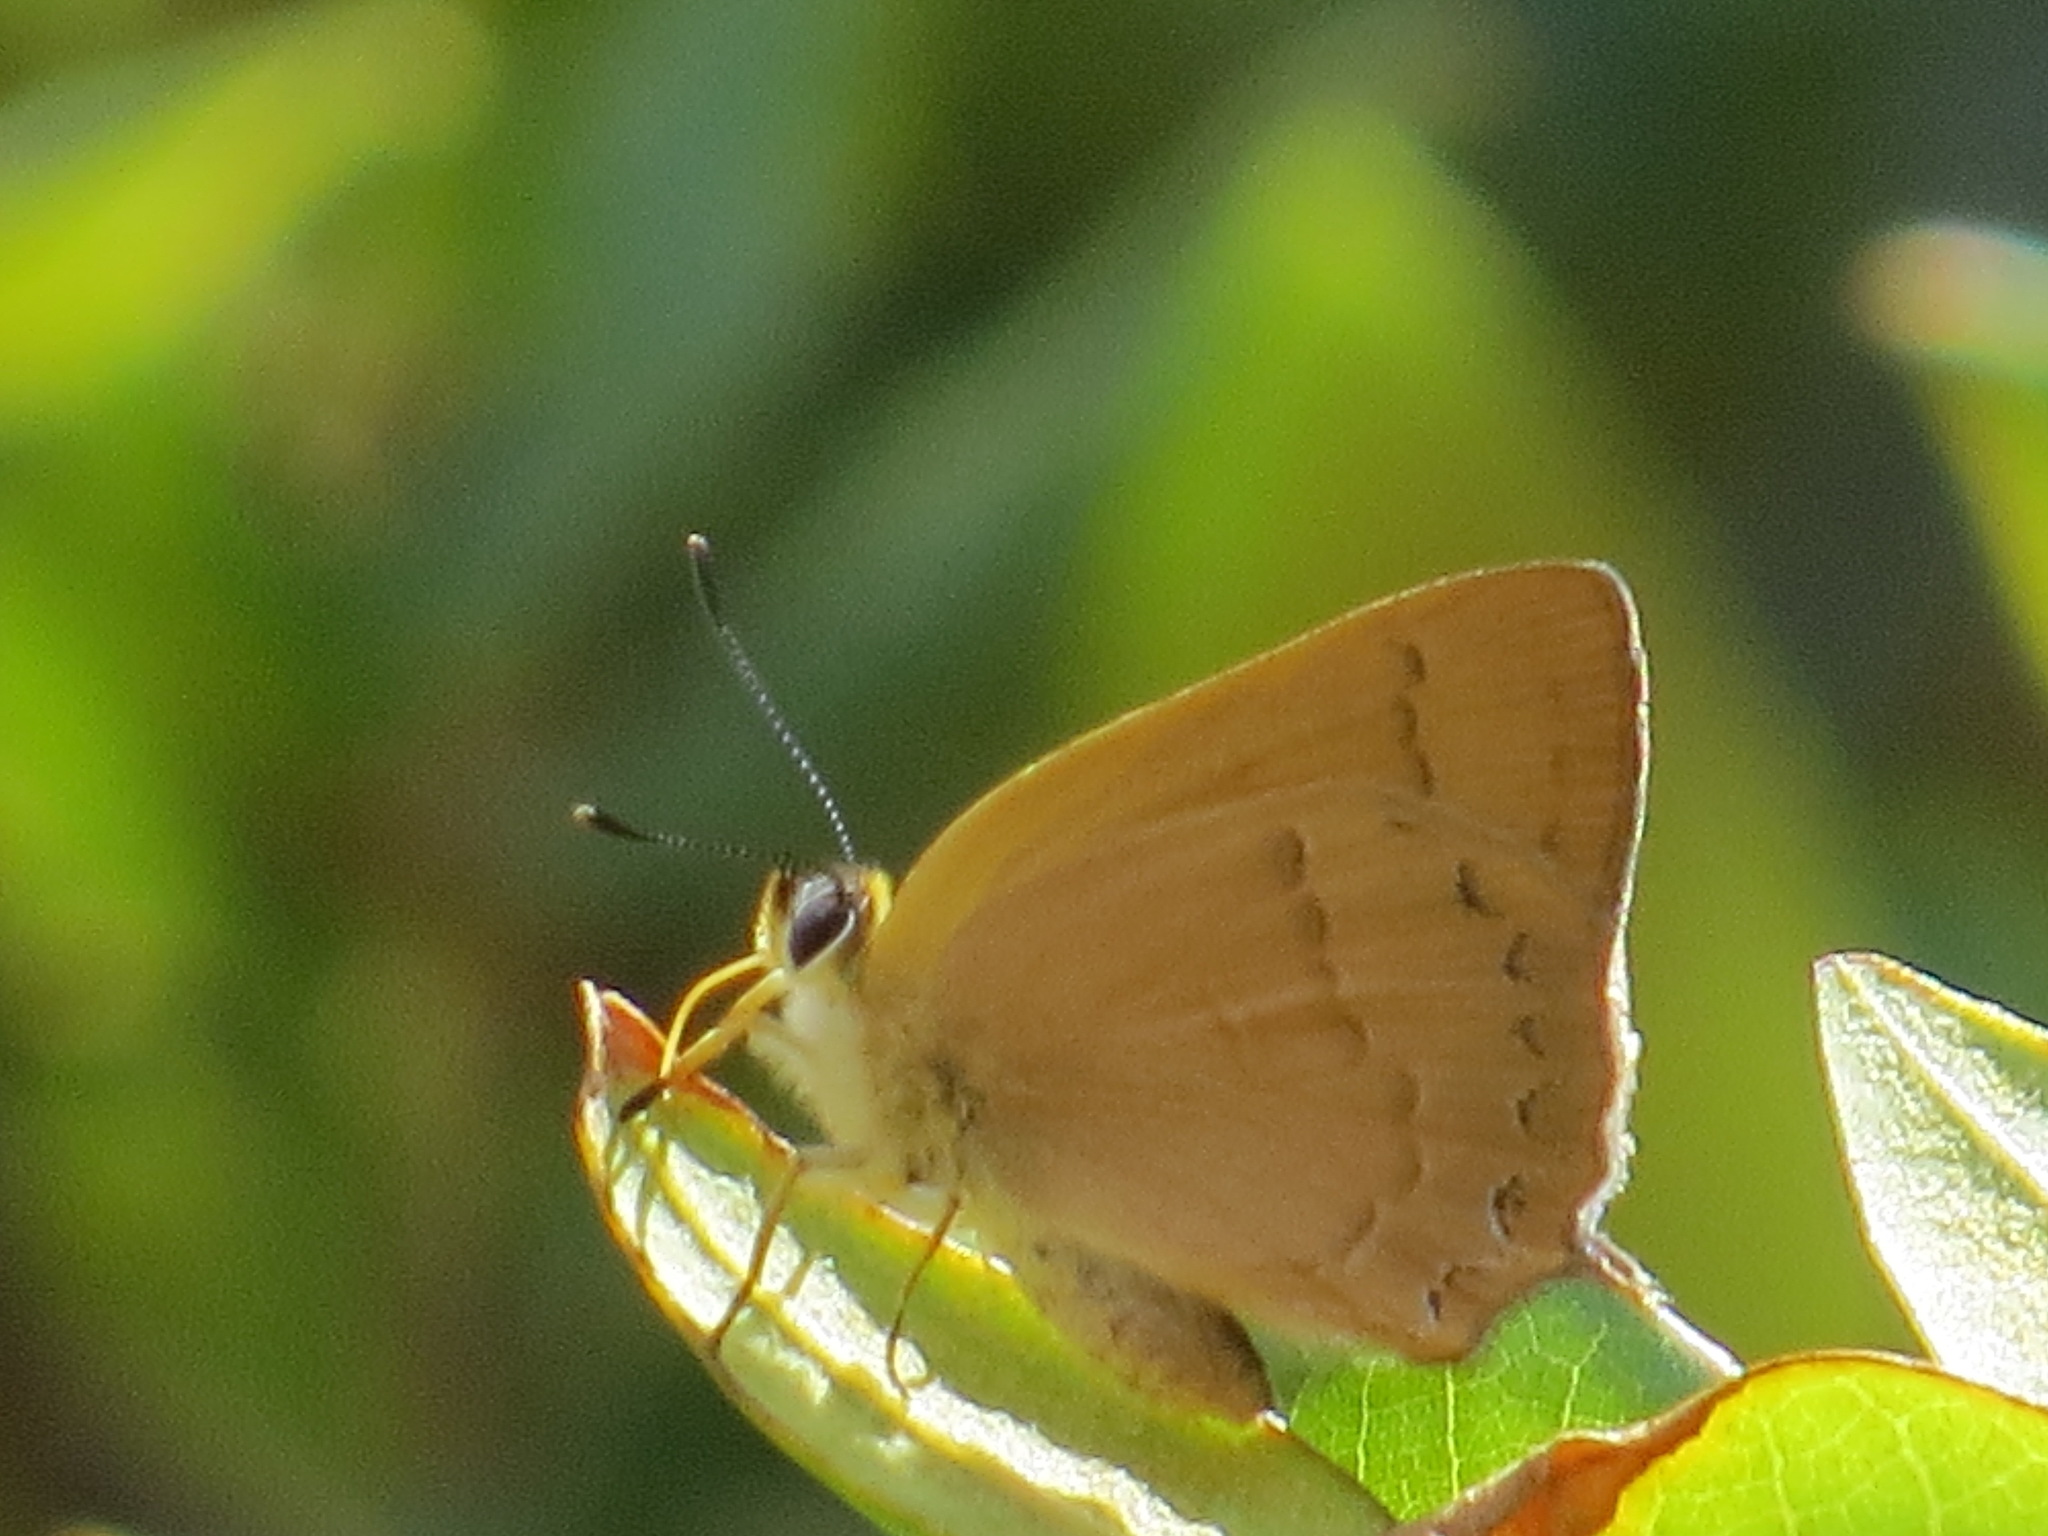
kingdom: Animalia
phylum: Arthropoda
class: Insecta
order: Lepidoptera
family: Lycaenidae
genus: Habrodais
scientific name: Habrodais grunus
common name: Golden hairstreak
